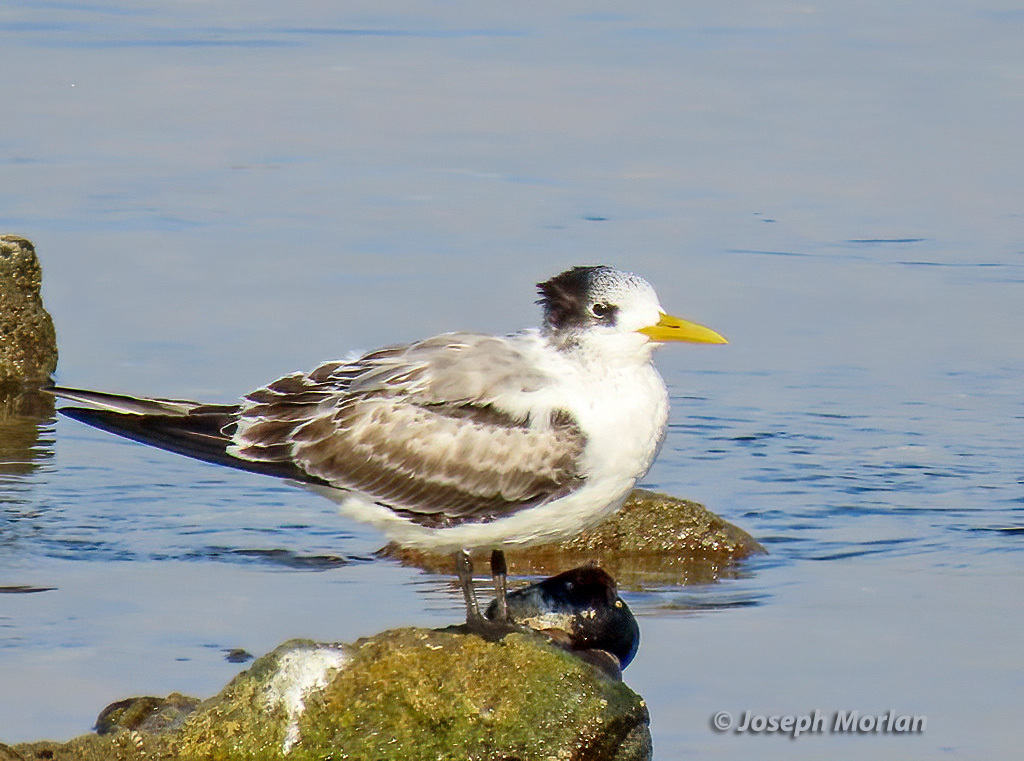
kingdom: Animalia
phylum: Chordata
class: Aves
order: Charadriiformes
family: Laridae
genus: Thalasseus
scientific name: Thalasseus bergii
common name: Greater crested tern
